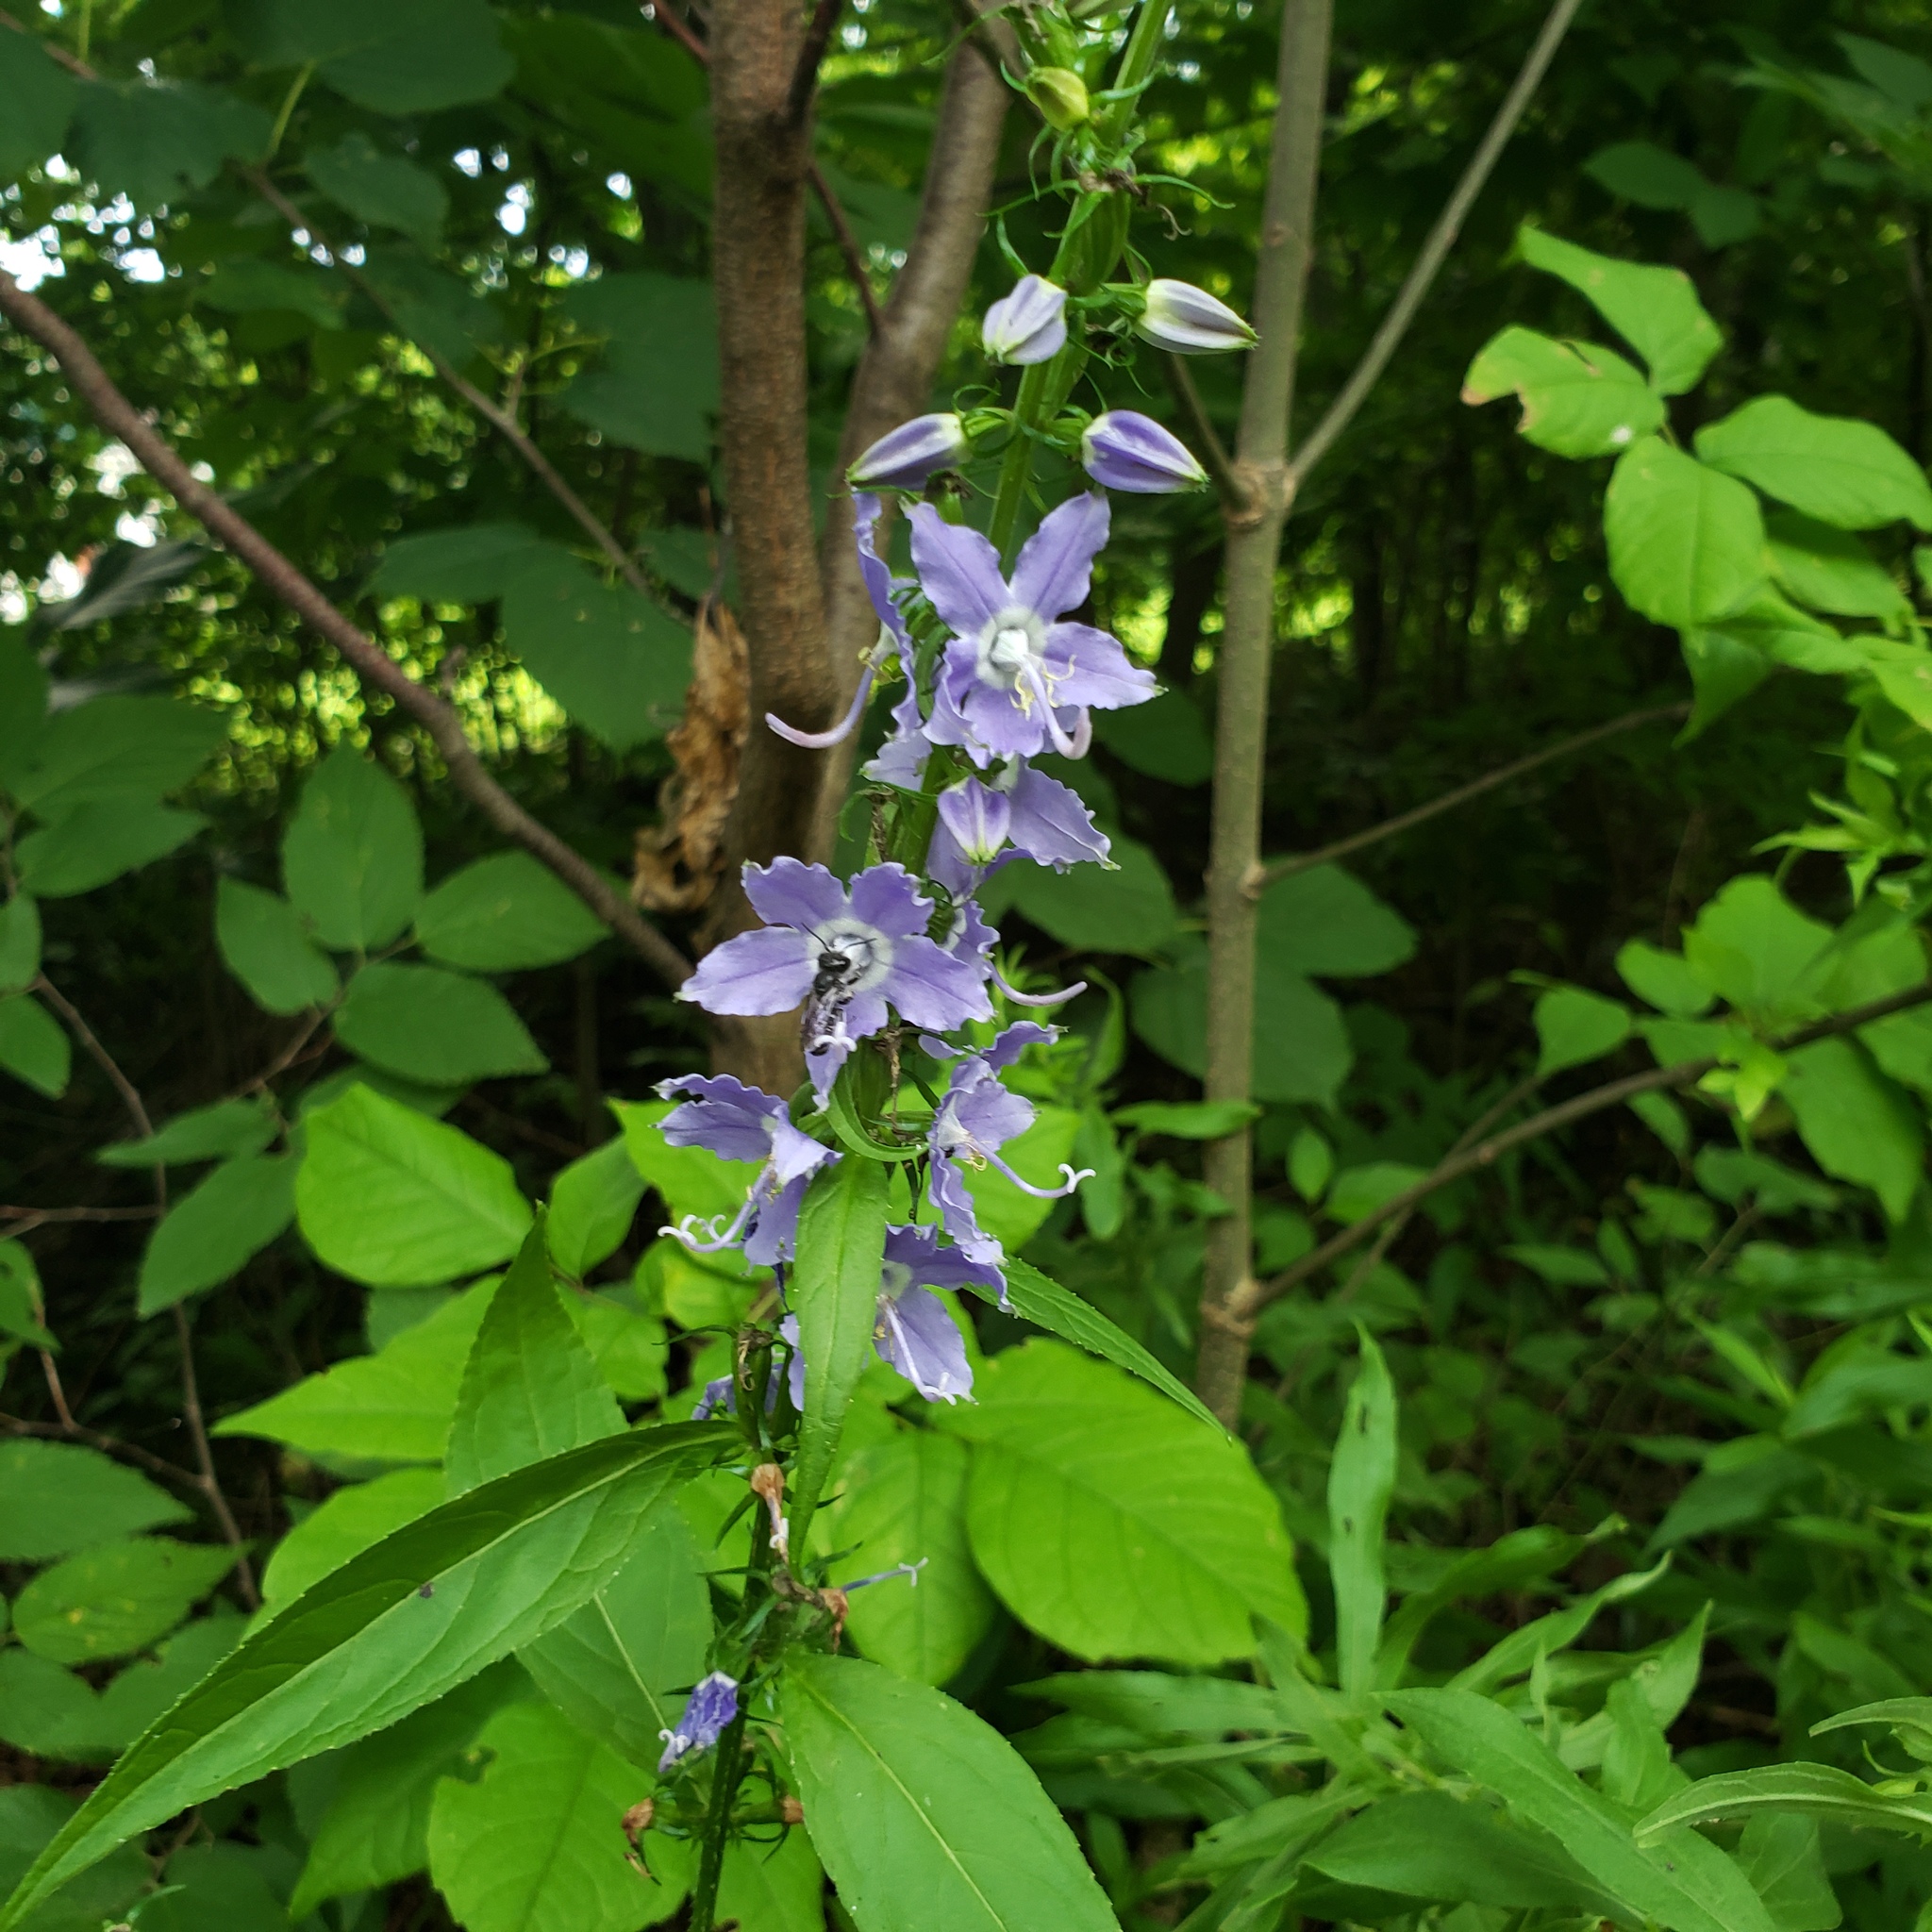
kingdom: Plantae
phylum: Tracheophyta
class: Magnoliopsida
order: Asterales
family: Campanulaceae
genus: Campanulastrum
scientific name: Campanulastrum americanum
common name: American bellflower
